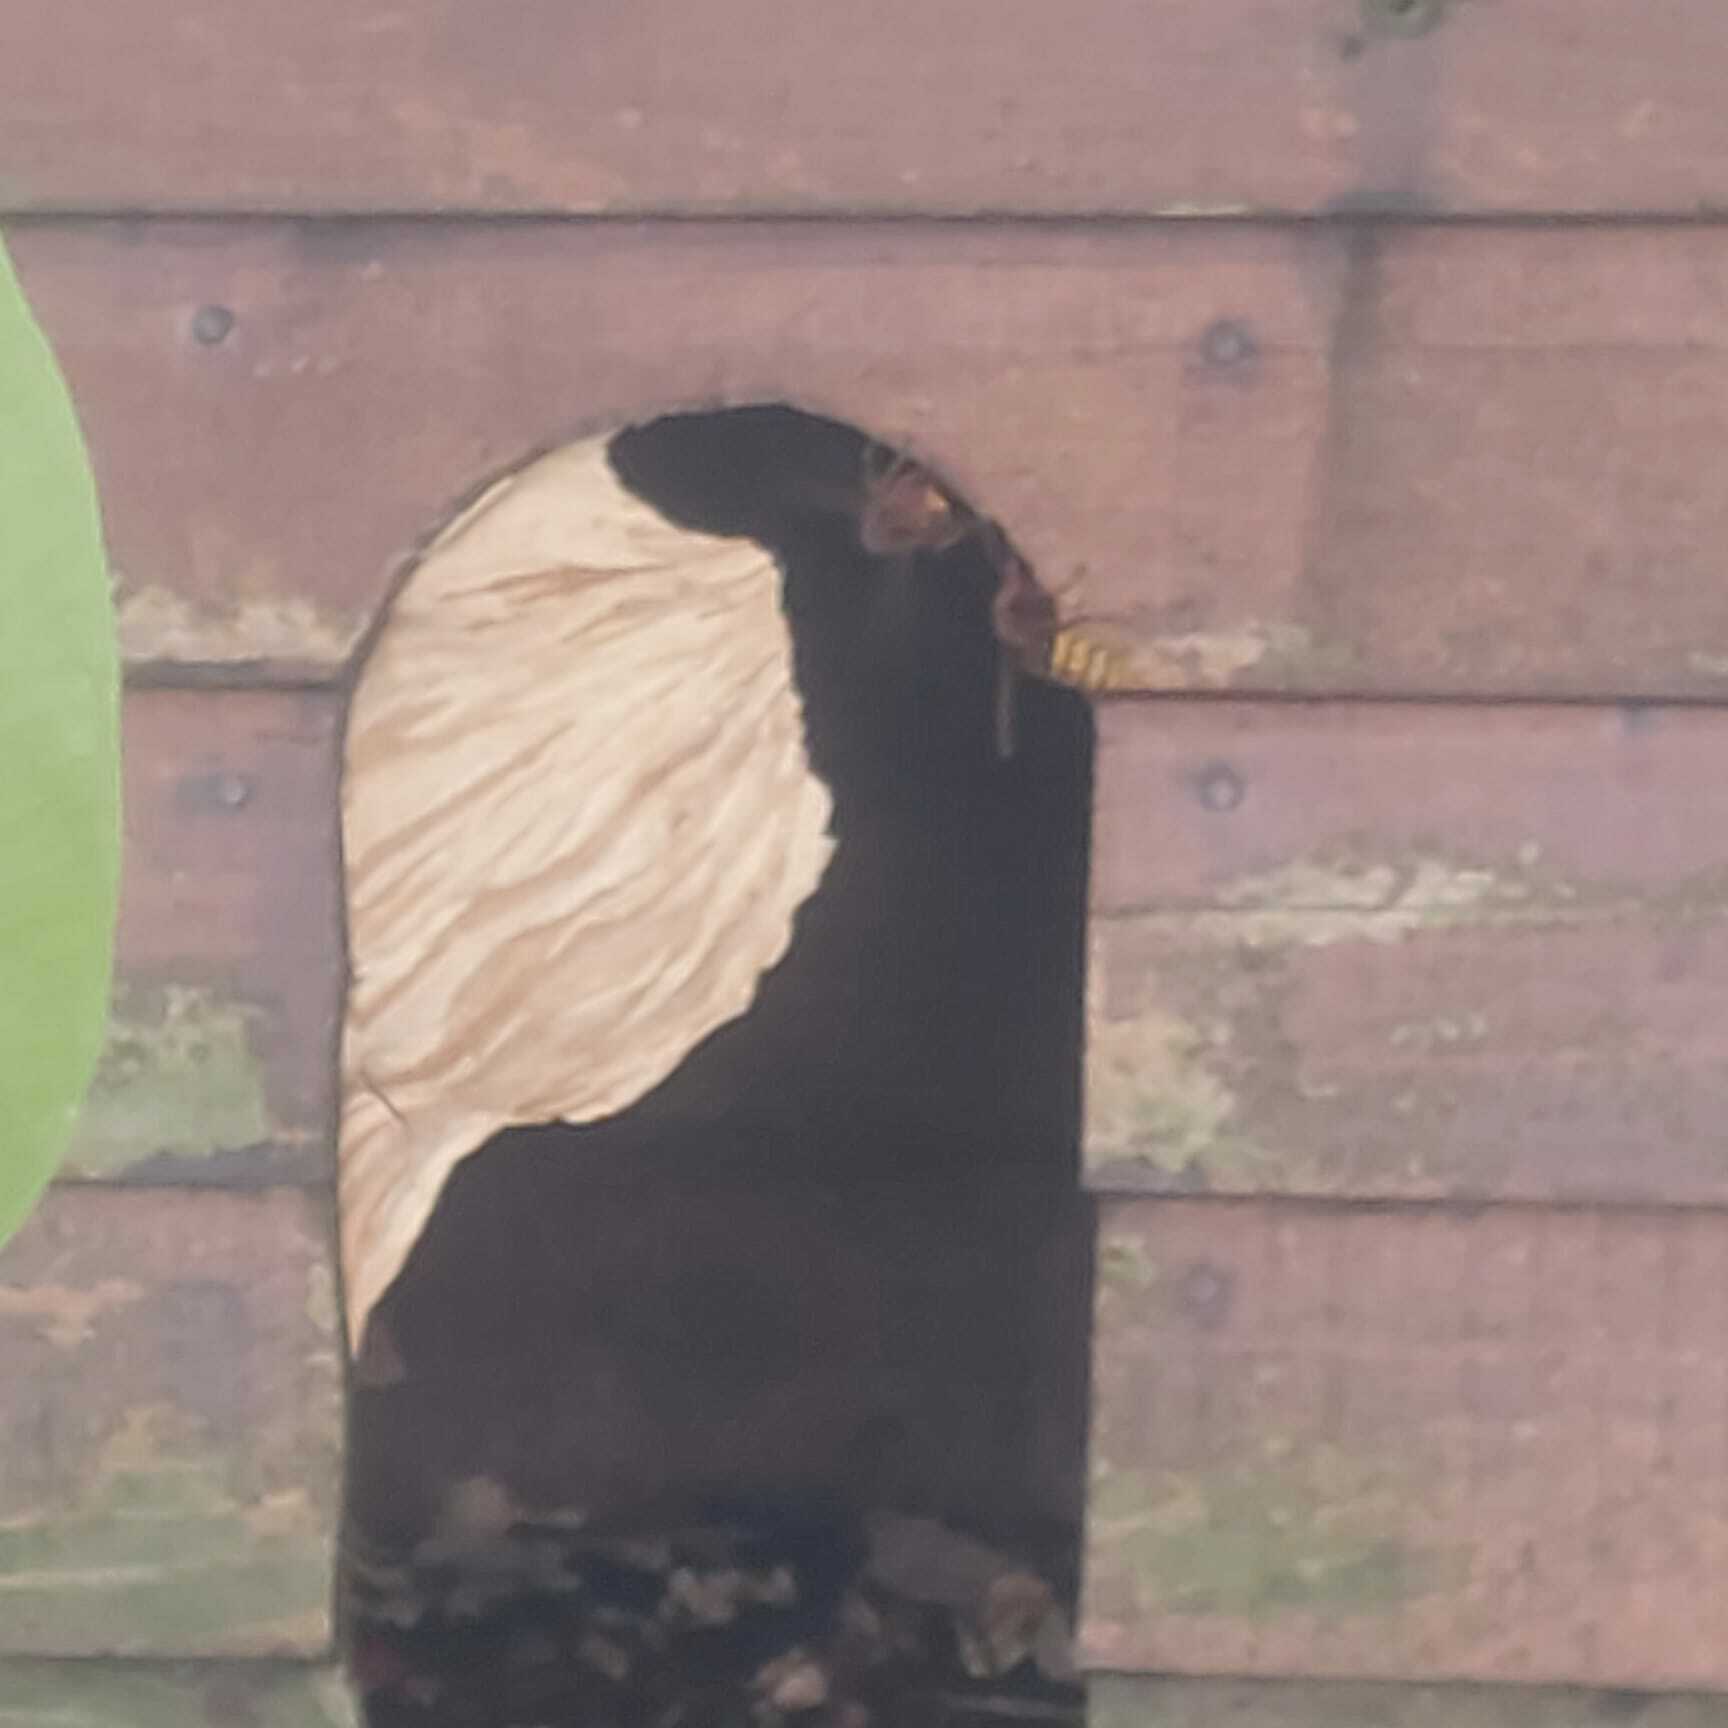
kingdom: Animalia
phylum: Arthropoda
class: Insecta
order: Hymenoptera
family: Vespidae
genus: Vespa
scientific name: Vespa crabro
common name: Hornet
